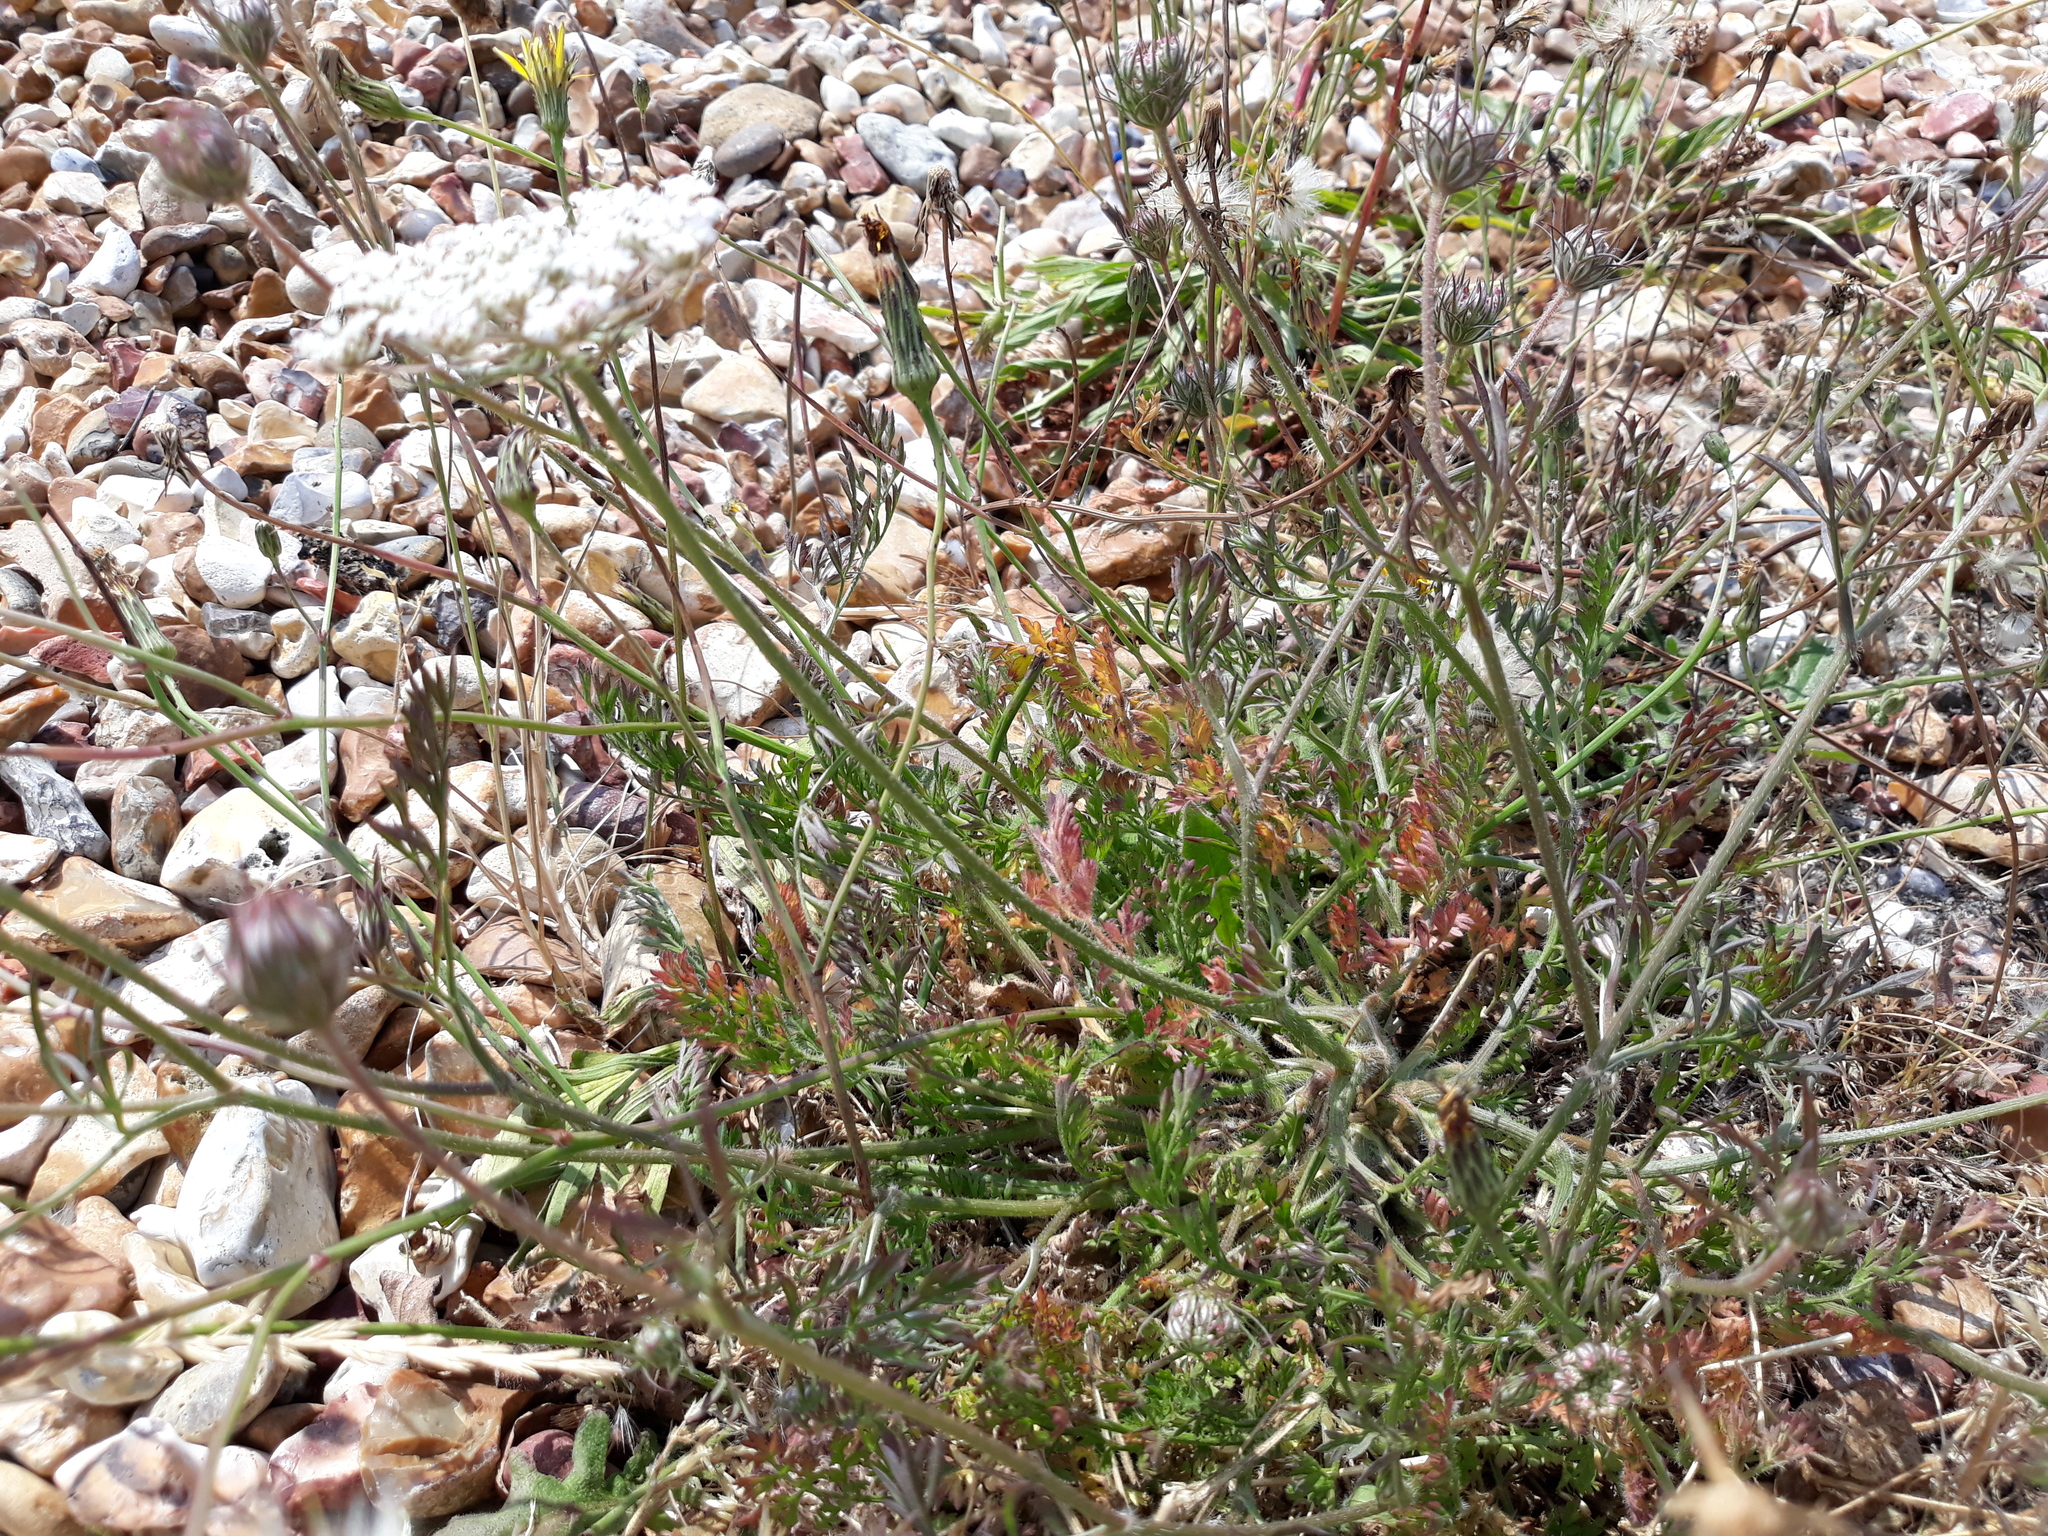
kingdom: Plantae
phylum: Tracheophyta
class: Magnoliopsida
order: Apiales
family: Apiaceae
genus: Daucus
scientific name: Daucus carota
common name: Wild carrot
